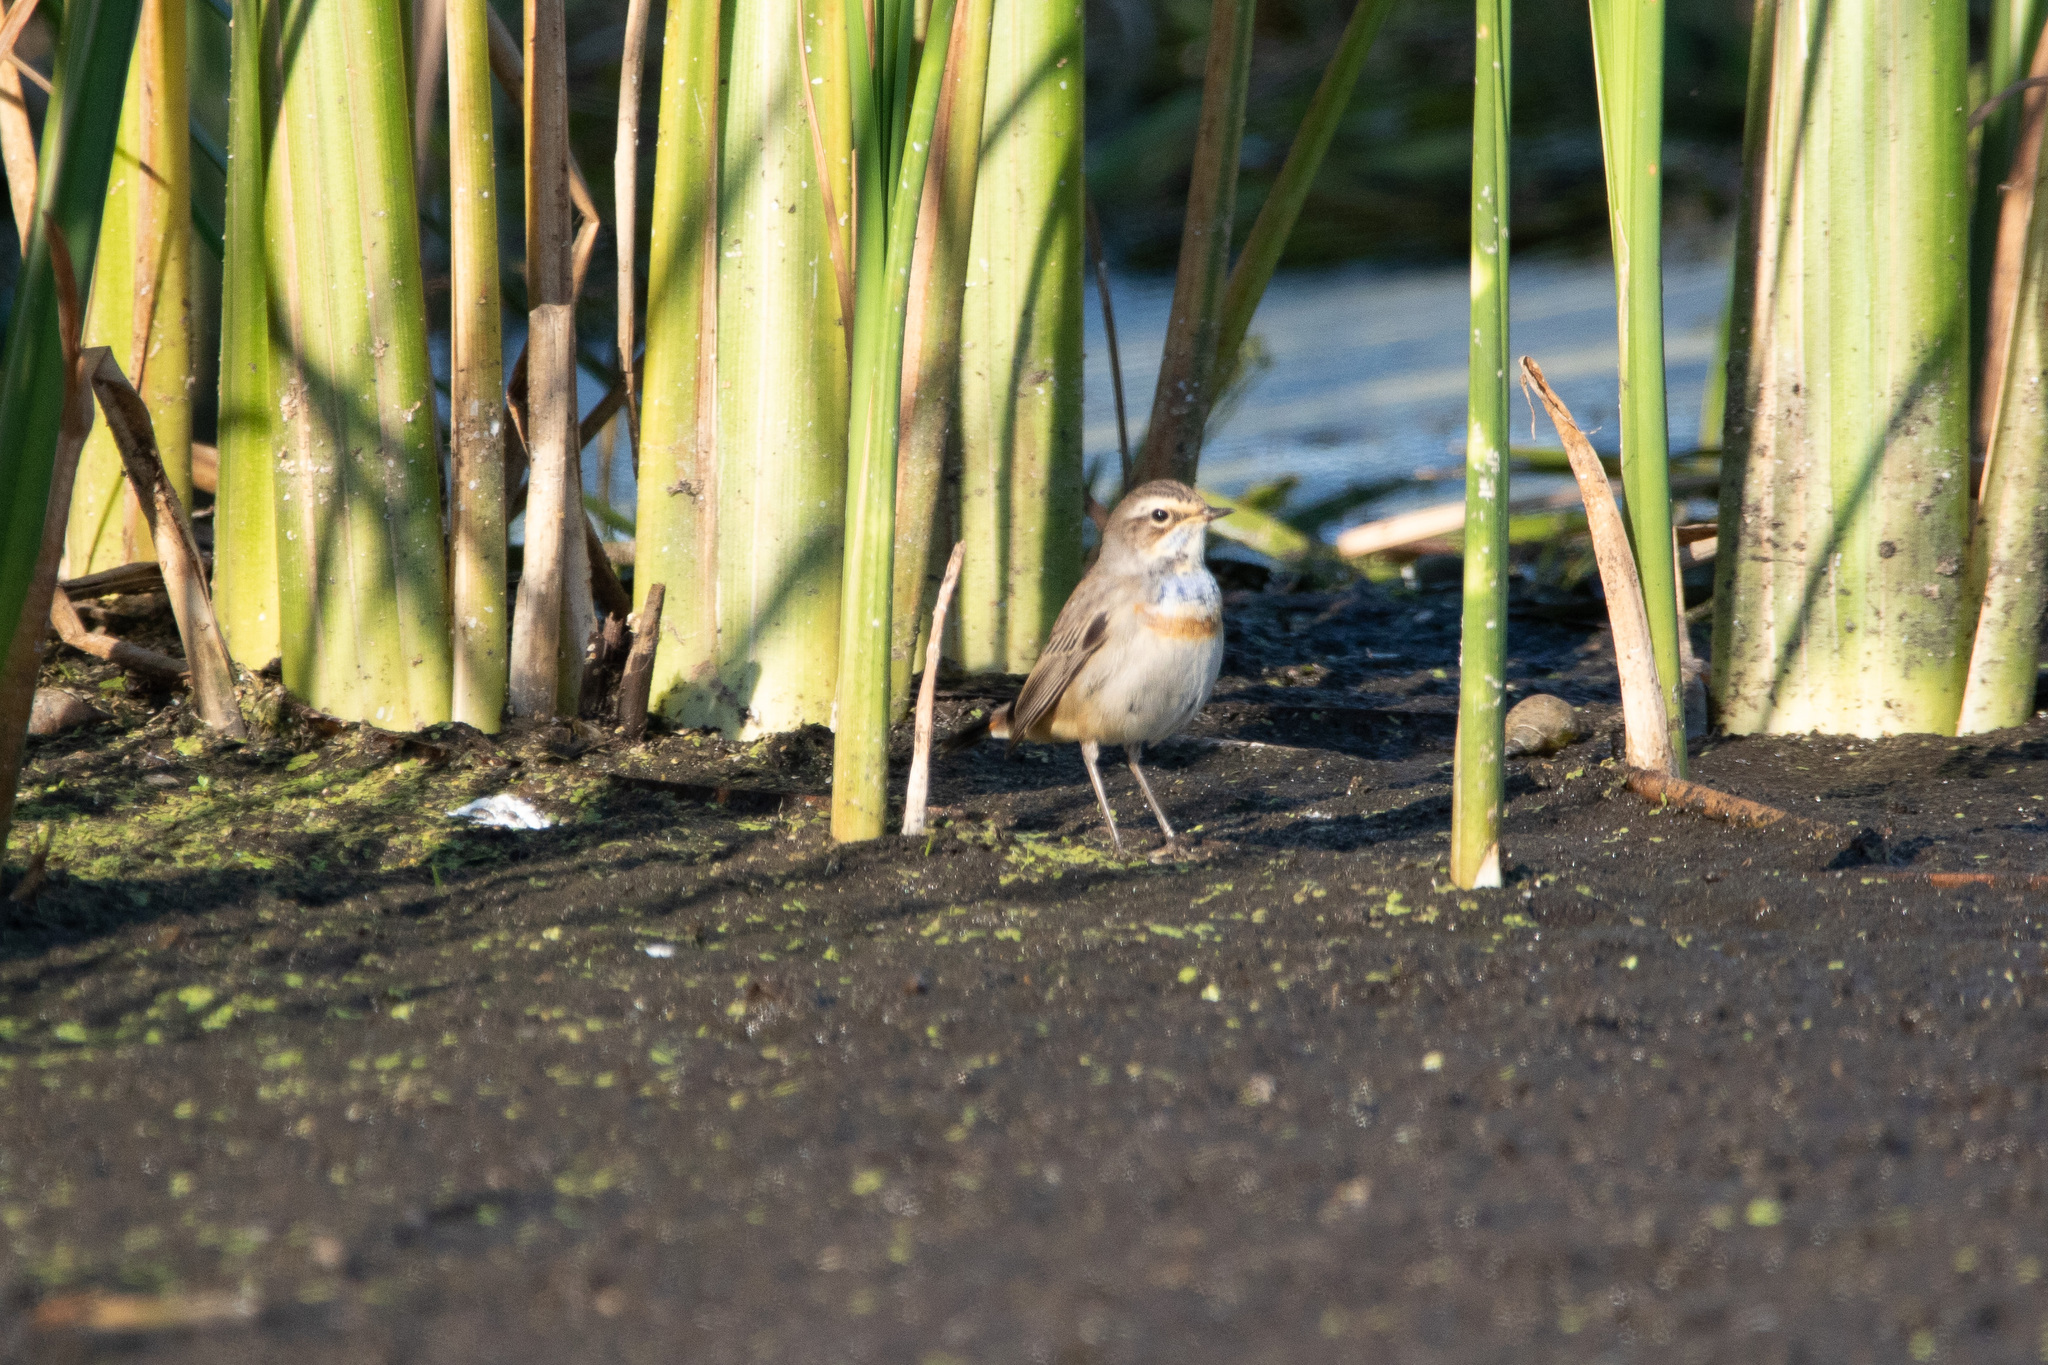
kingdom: Animalia
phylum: Chordata
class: Aves
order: Passeriformes
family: Muscicapidae
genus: Luscinia
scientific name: Luscinia svecica
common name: Bluethroat
